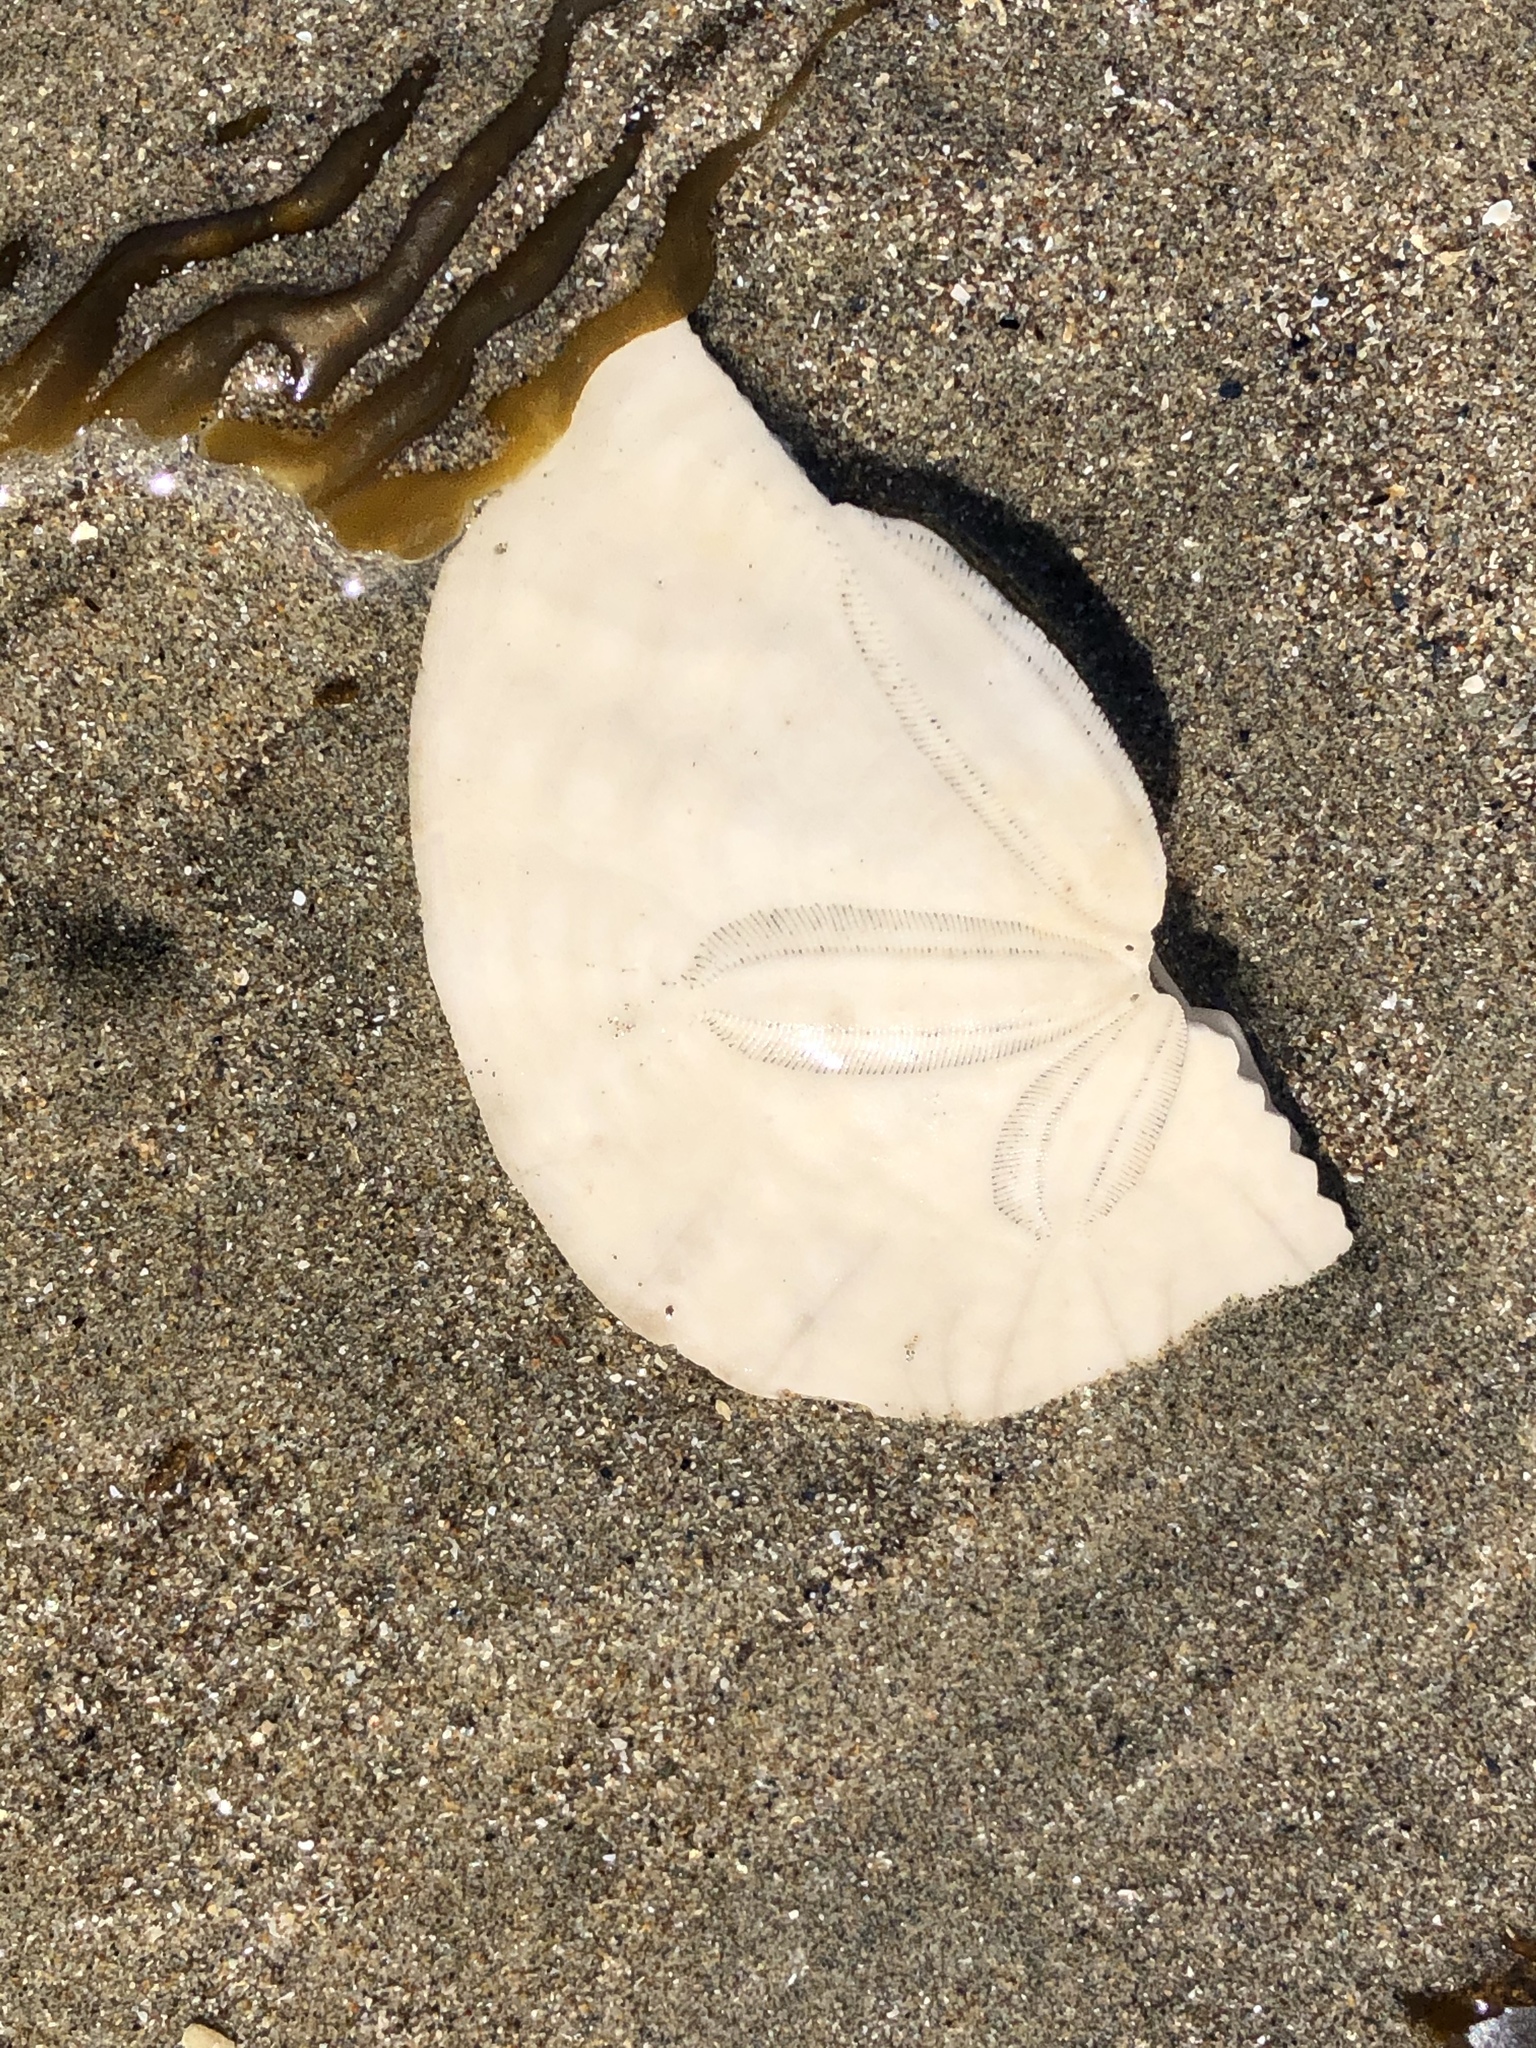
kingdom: Animalia
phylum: Echinodermata
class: Echinoidea
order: Echinolampadacea
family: Dendrasteridae
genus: Dendraster
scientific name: Dendraster excentricus
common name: Eccentric sand dollar sea urchin
